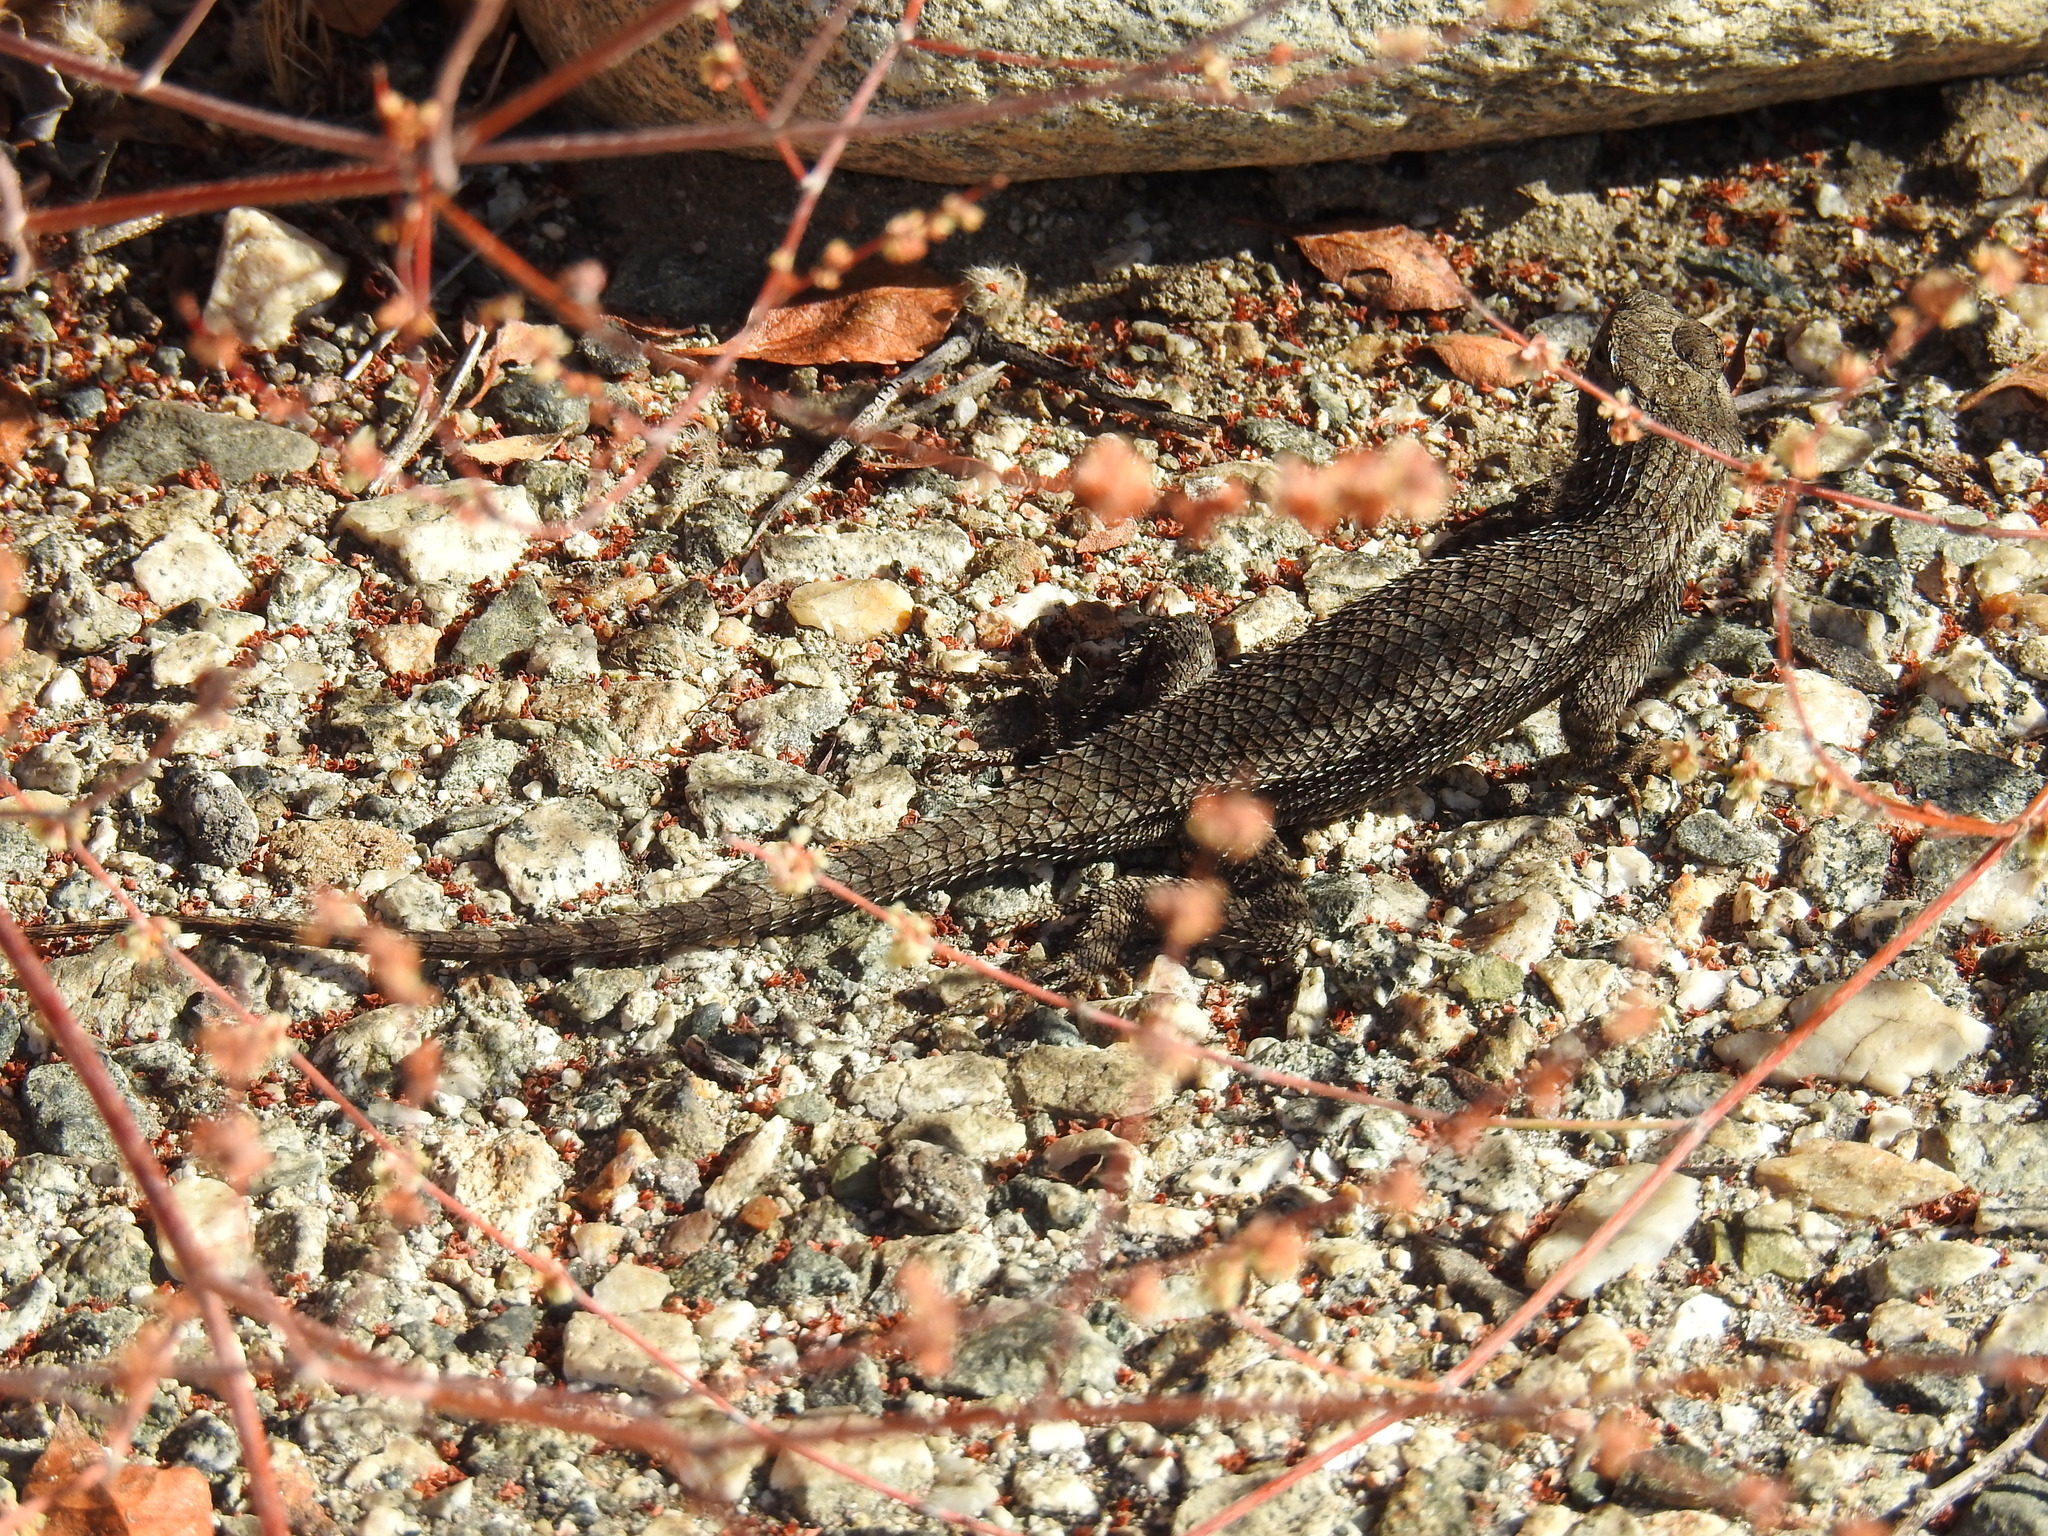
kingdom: Animalia
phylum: Chordata
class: Squamata
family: Phrynosomatidae
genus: Sceloporus
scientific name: Sceloporus occidentalis
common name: Western fence lizard
